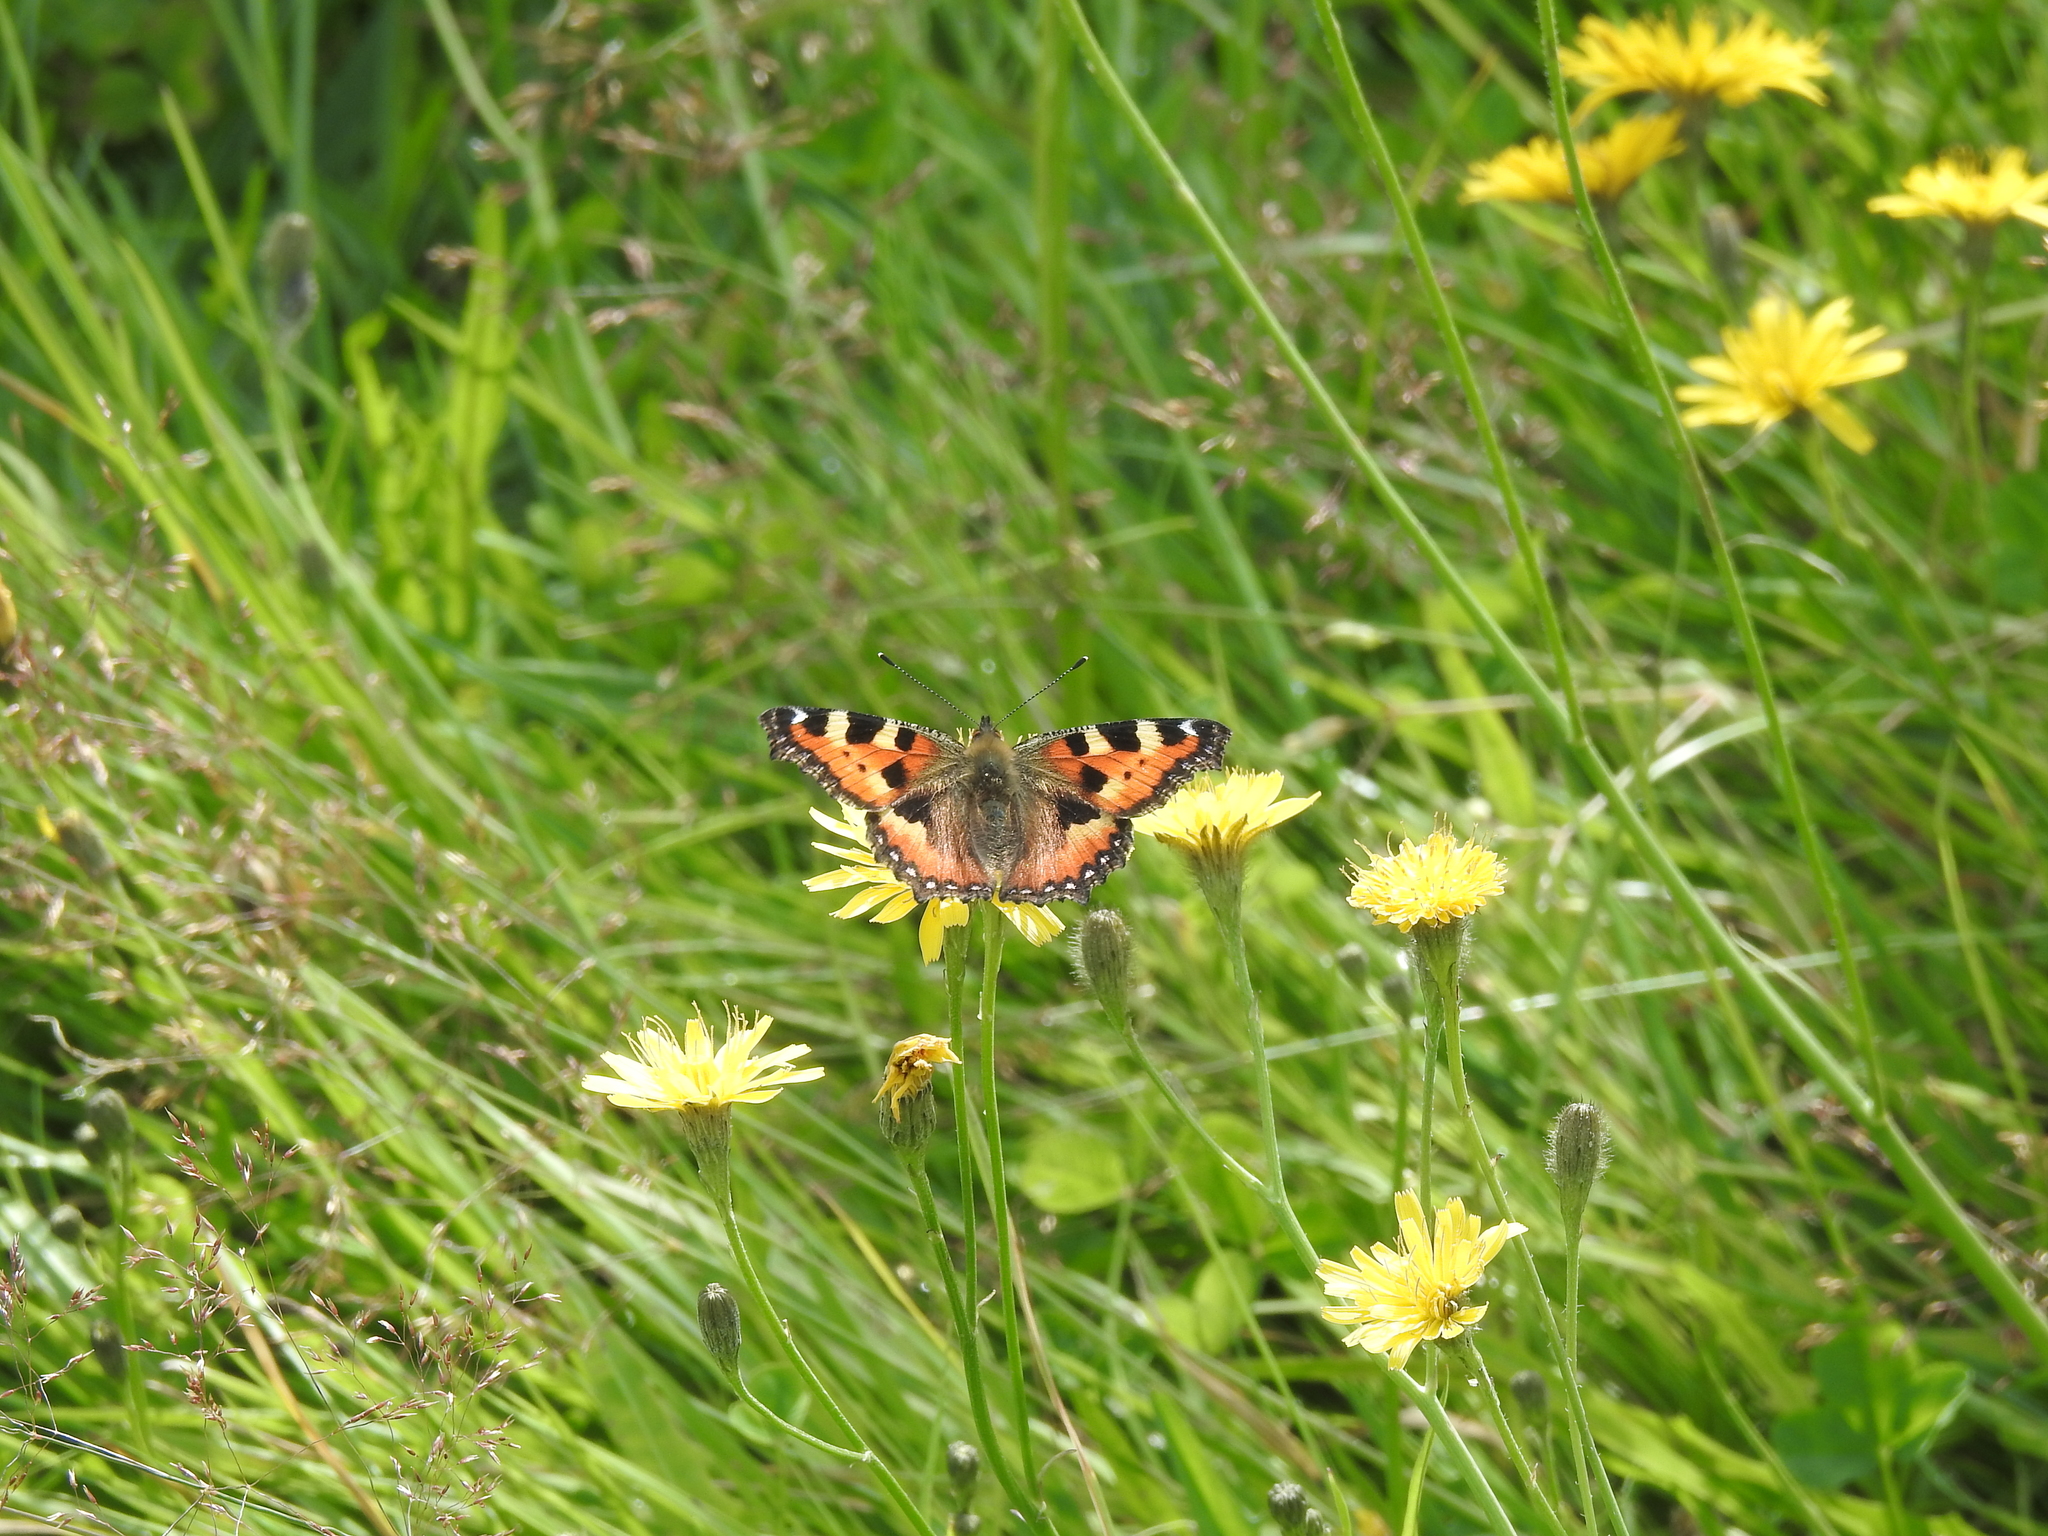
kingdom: Animalia
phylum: Arthropoda
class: Insecta
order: Lepidoptera
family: Nymphalidae
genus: Aglais
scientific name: Aglais urticae
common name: Small tortoiseshell
